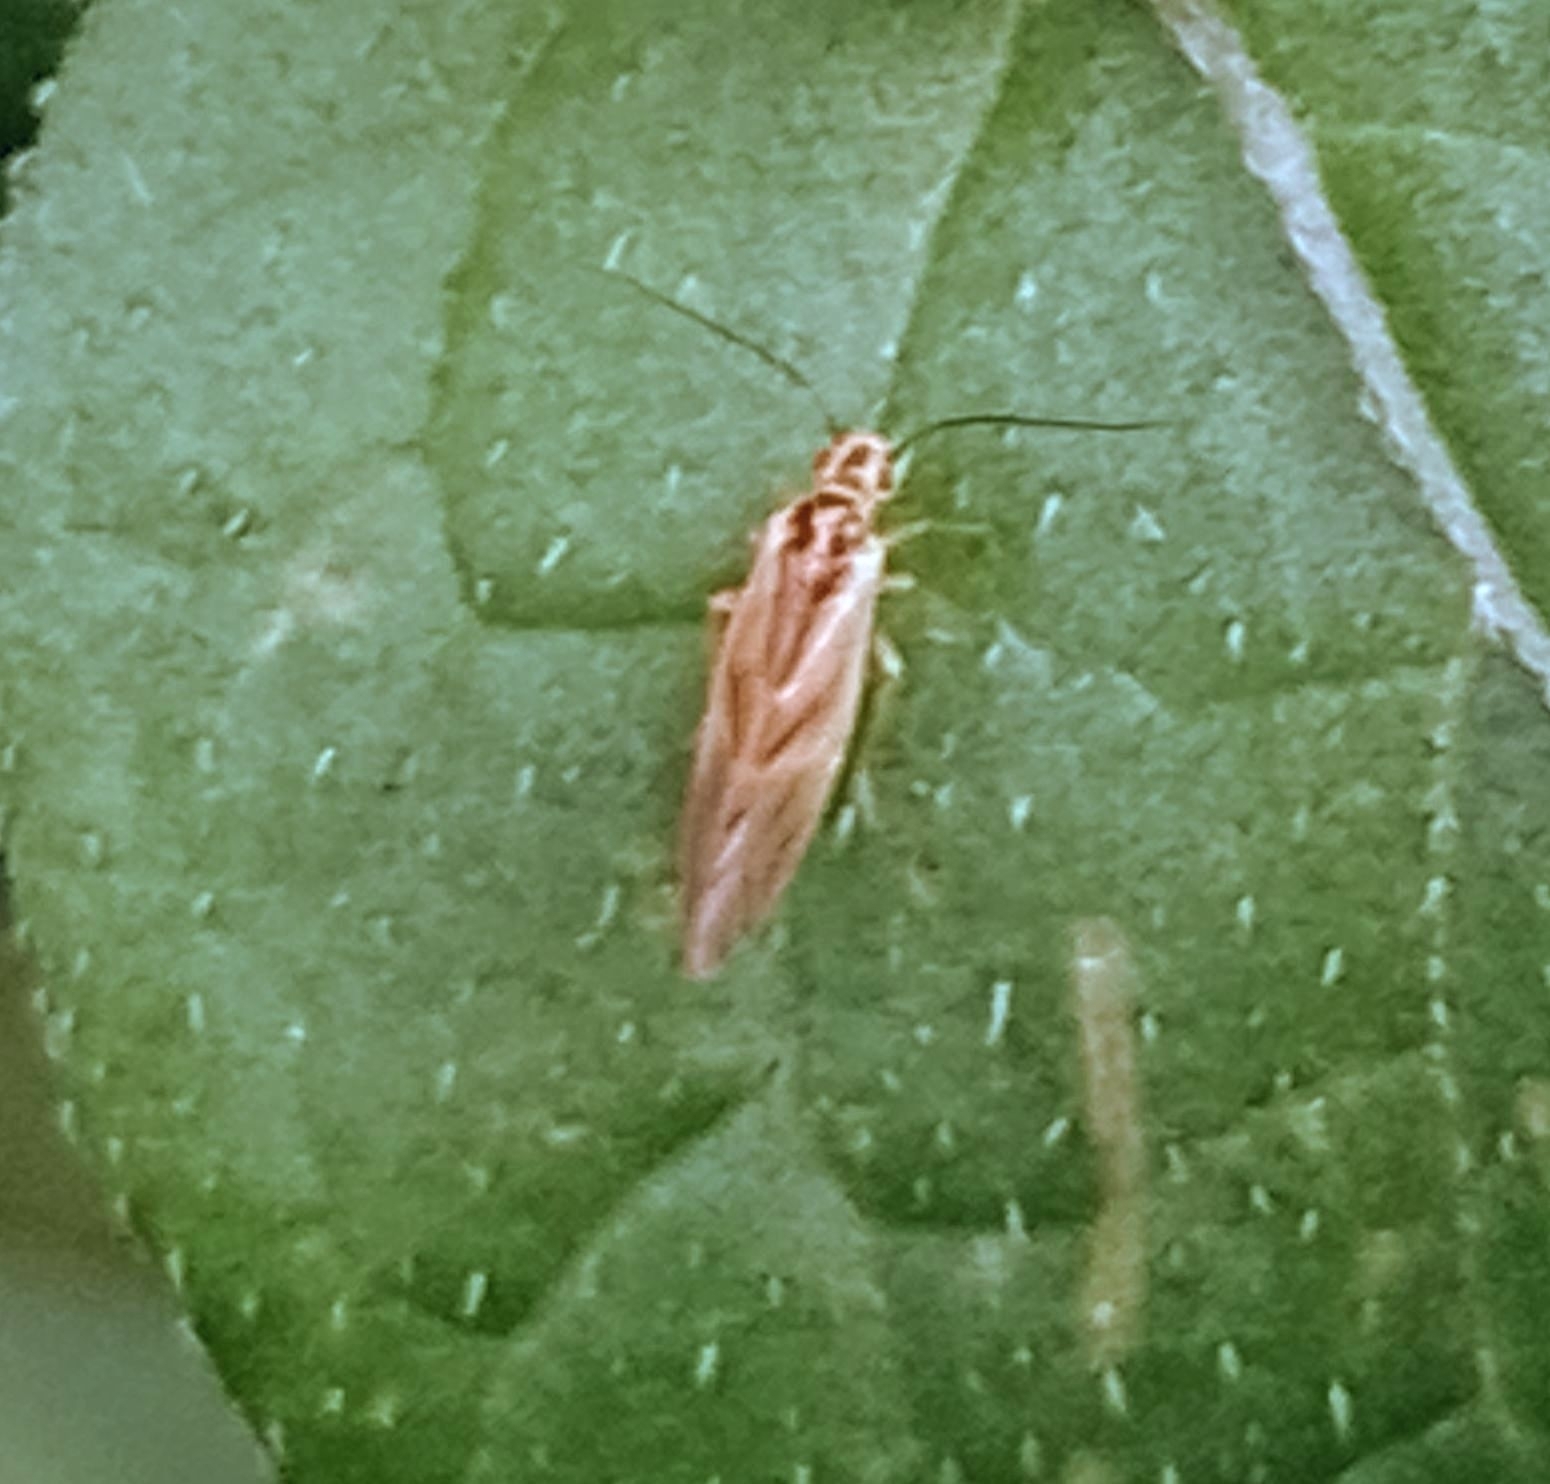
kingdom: Animalia
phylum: Arthropoda
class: Insecta
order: Psocodea
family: Caeciliusidae
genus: Valenzuela
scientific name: Valenzuela flavidus
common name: Yellow barklouse
